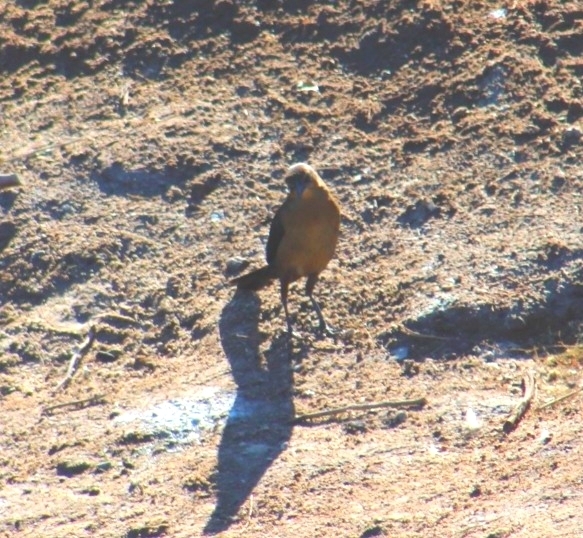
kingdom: Animalia
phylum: Chordata
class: Aves
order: Passeriformes
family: Icteridae
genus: Quiscalus
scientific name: Quiscalus mexicanus
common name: Great-tailed grackle
